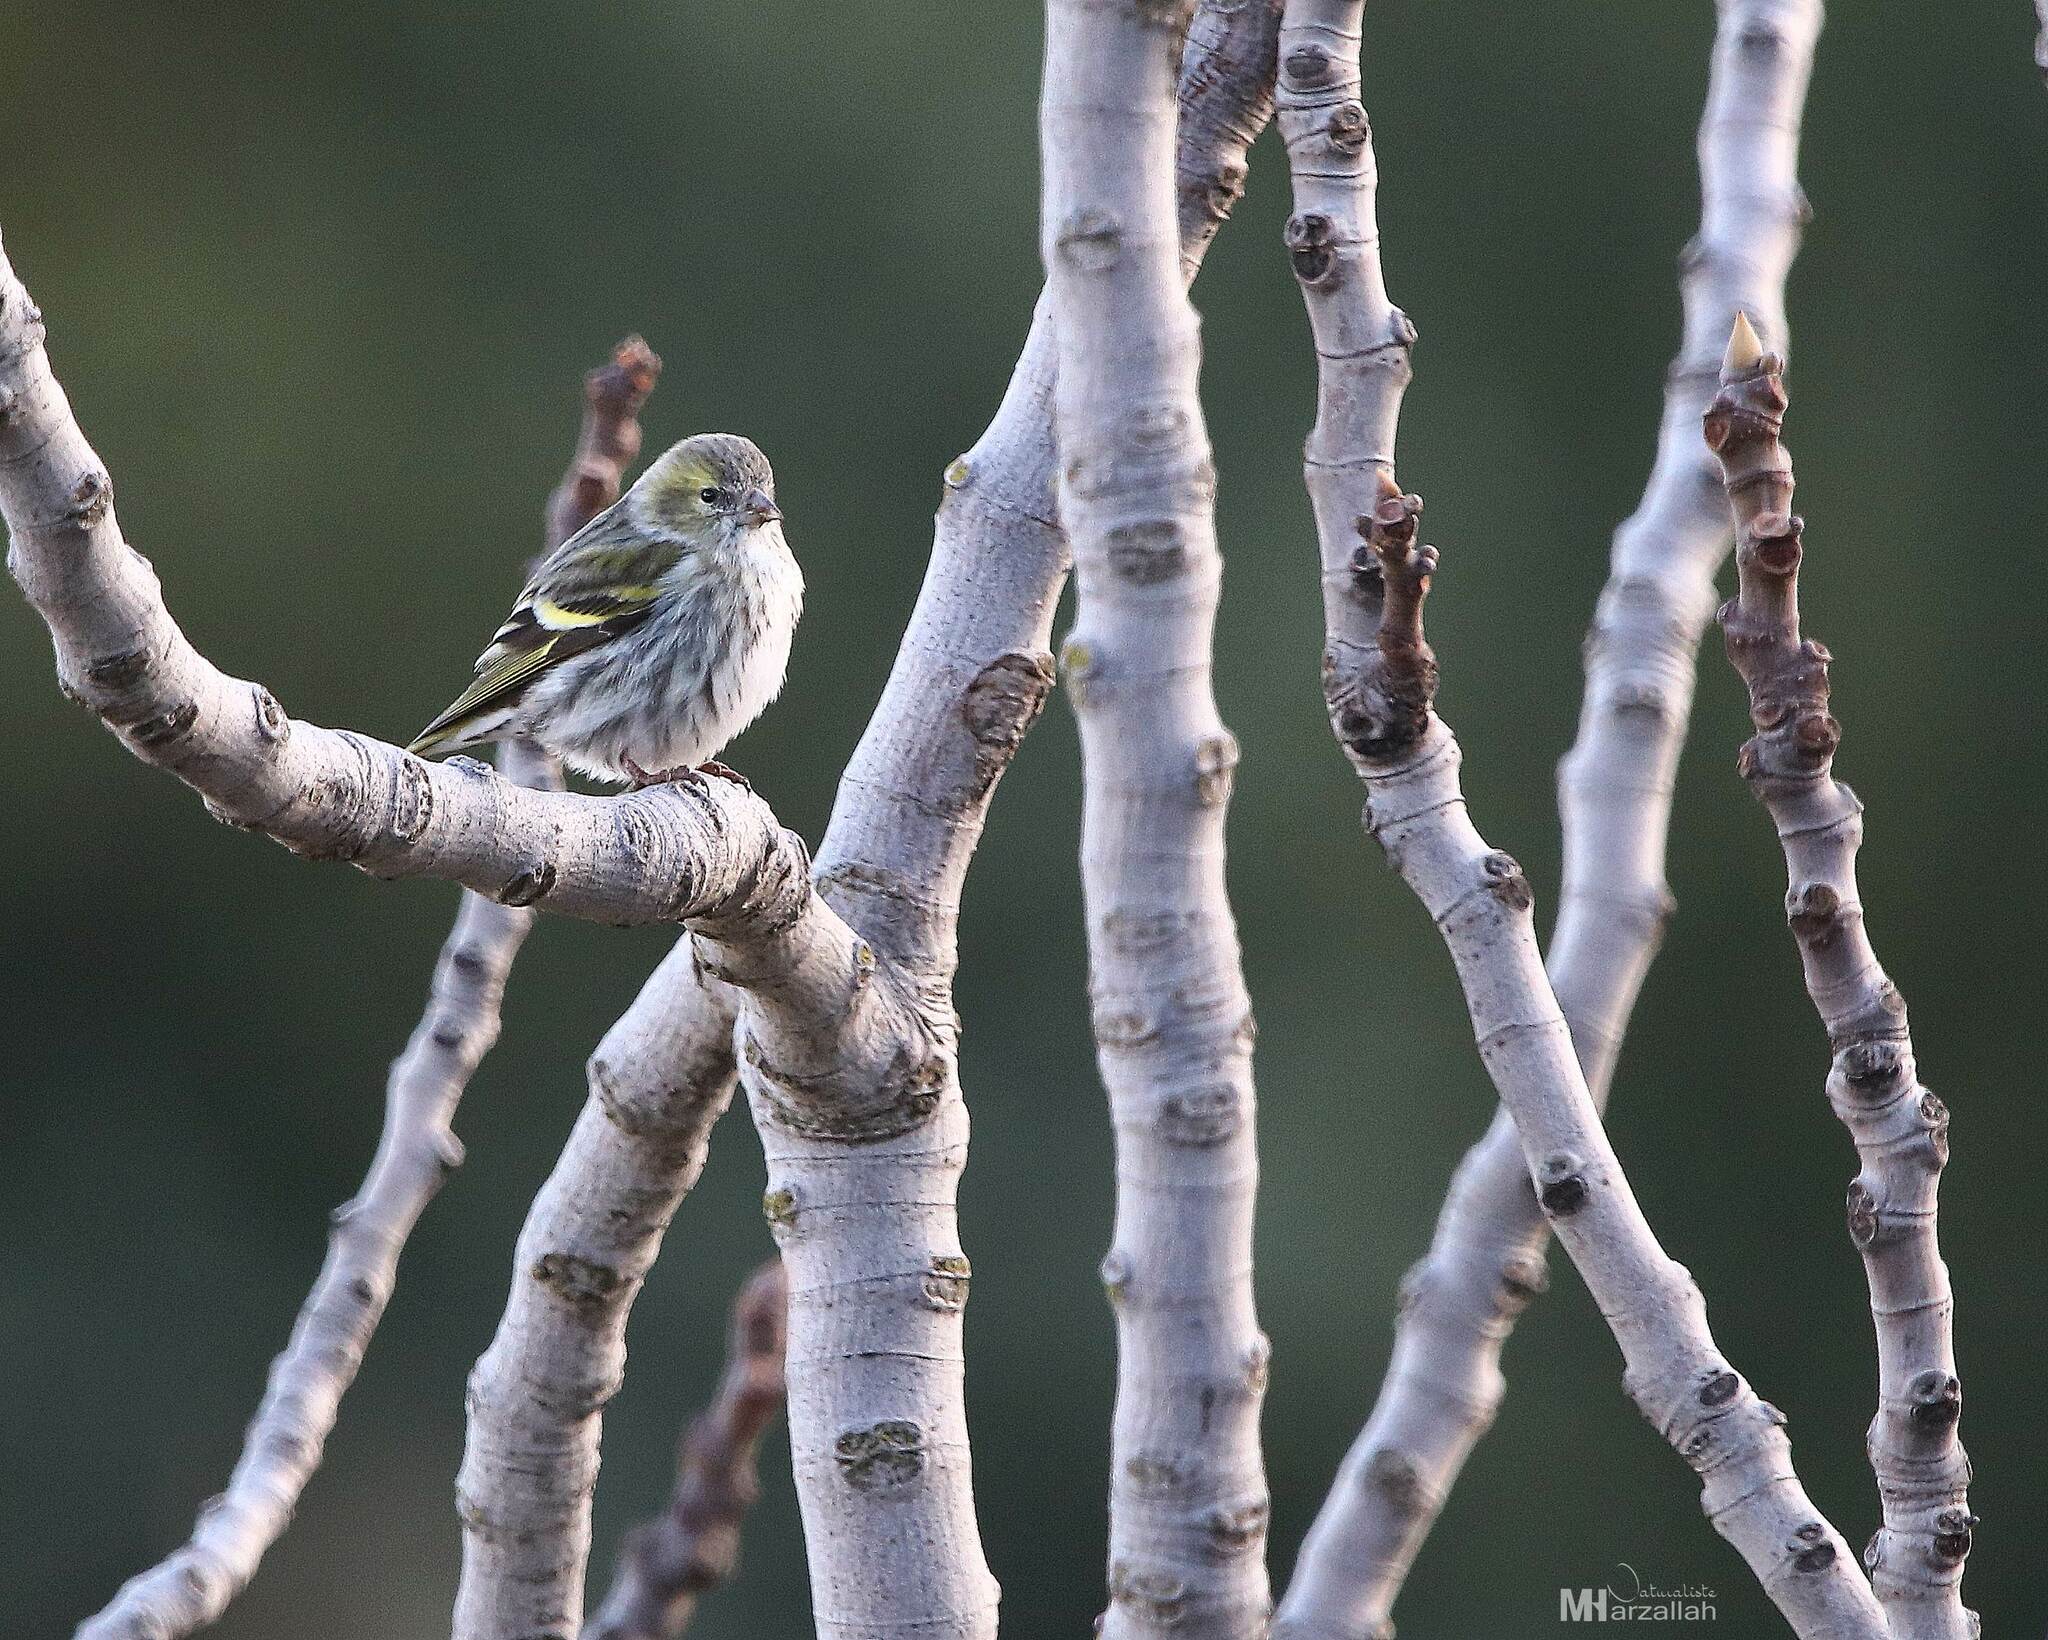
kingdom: Animalia
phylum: Chordata
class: Aves
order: Passeriformes
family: Fringillidae
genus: Spinus
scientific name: Spinus spinus
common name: Eurasian siskin
